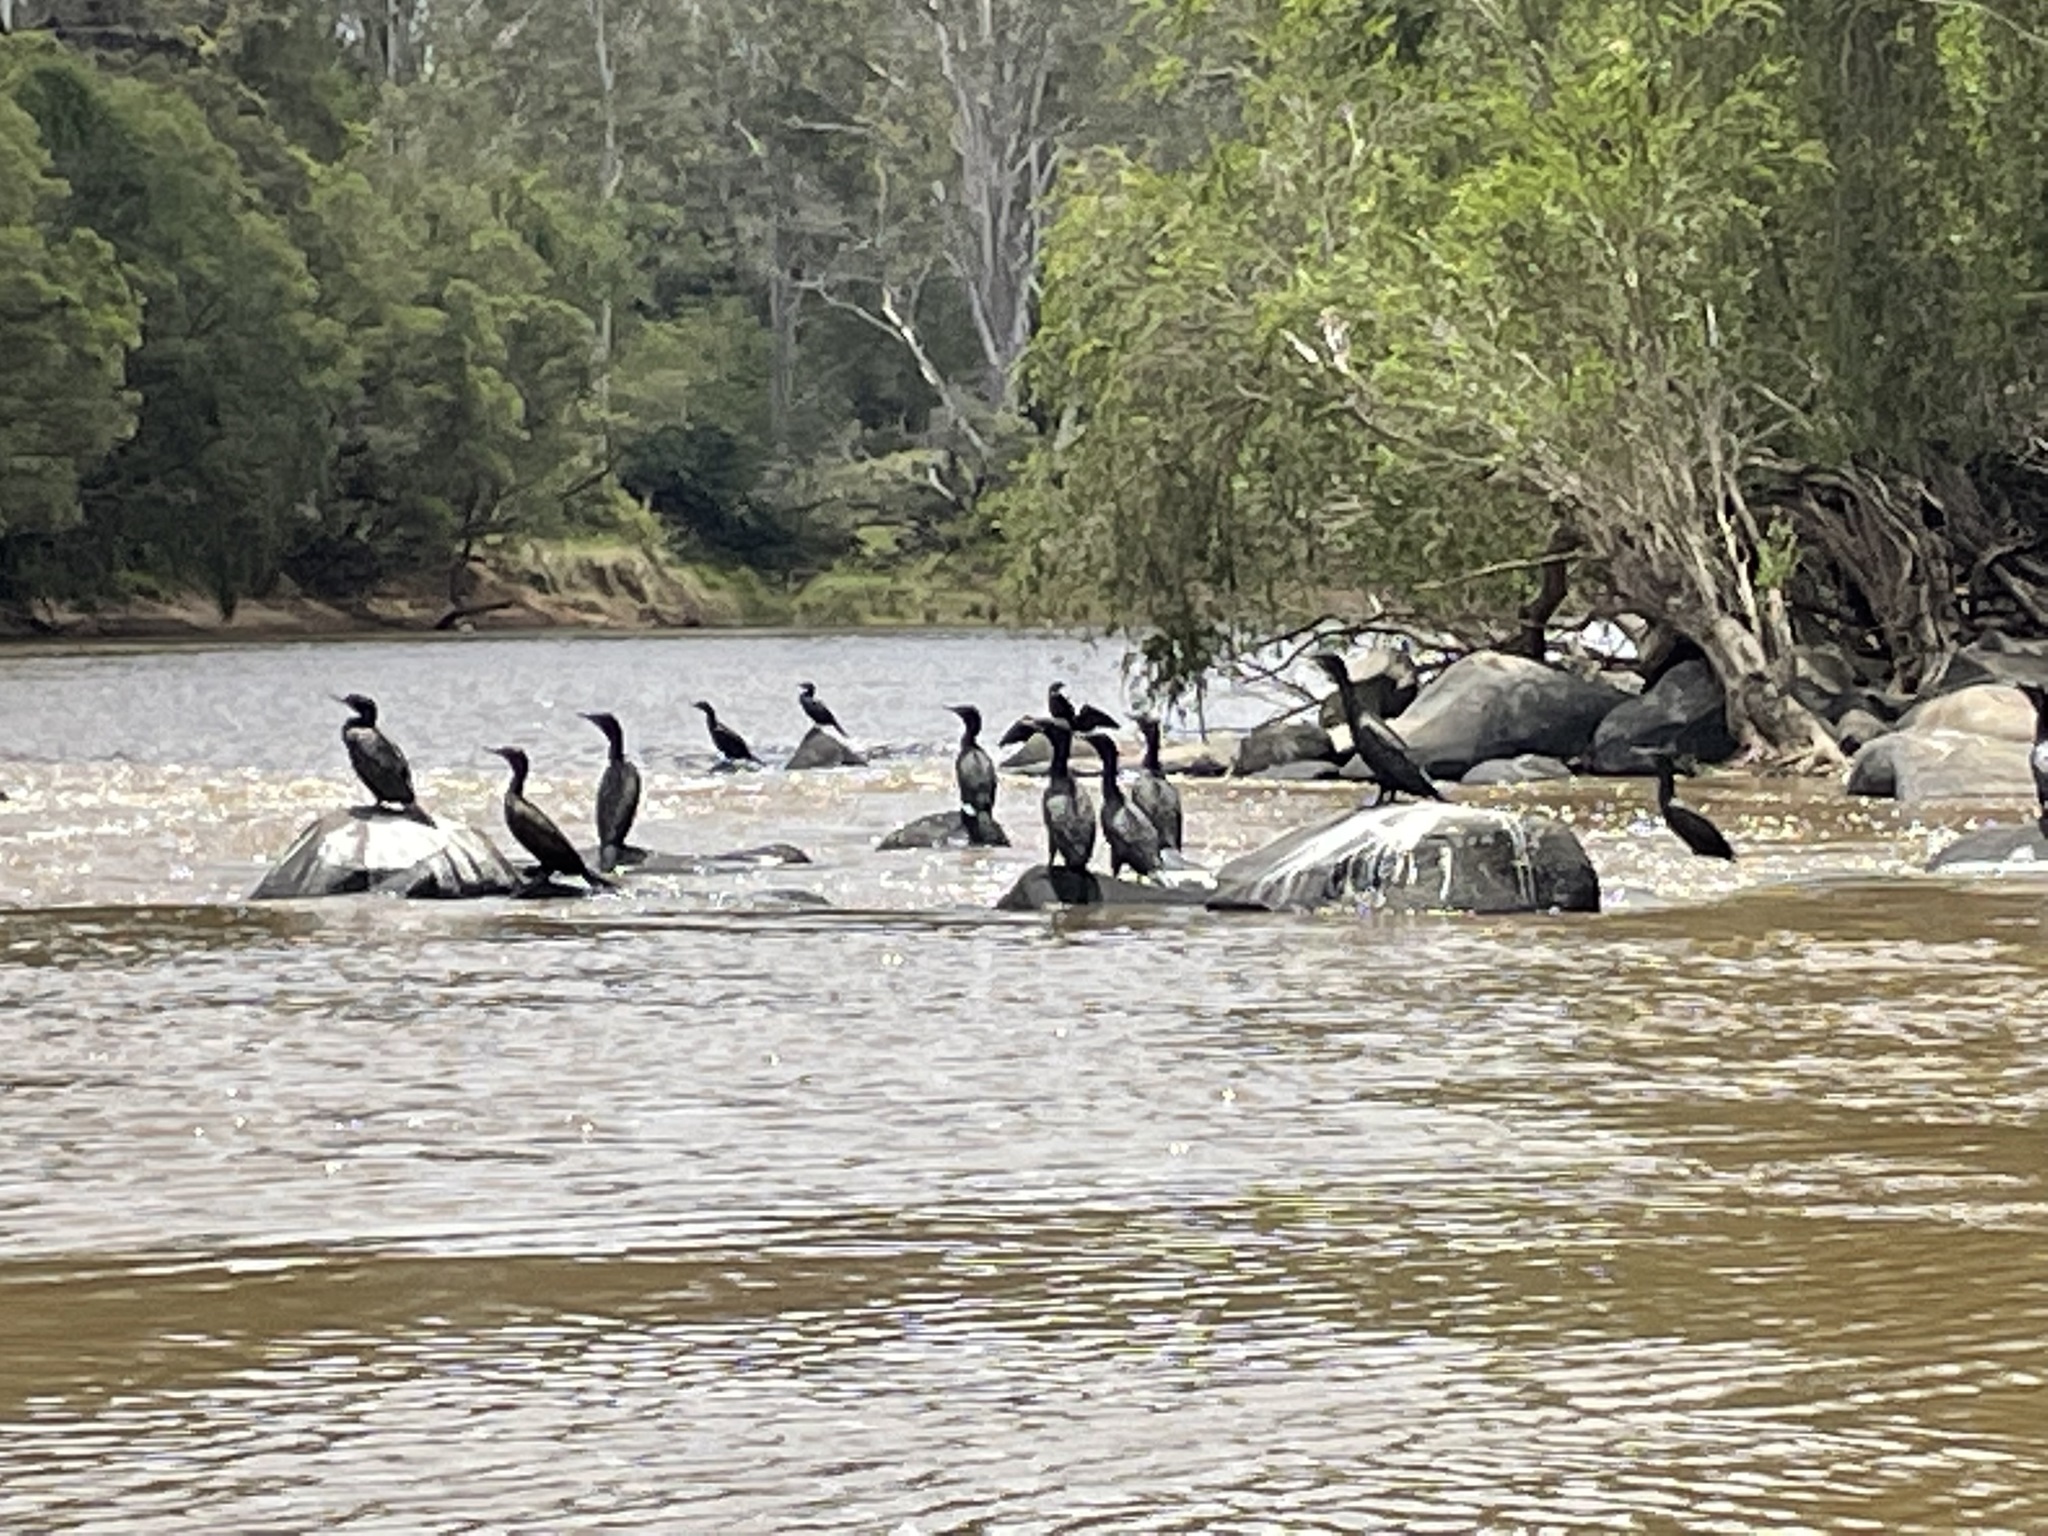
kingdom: Animalia
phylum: Chordata
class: Aves
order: Suliformes
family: Phalacrocoracidae
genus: Phalacrocorax
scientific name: Phalacrocorax sulcirostris
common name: Little black cormorant
